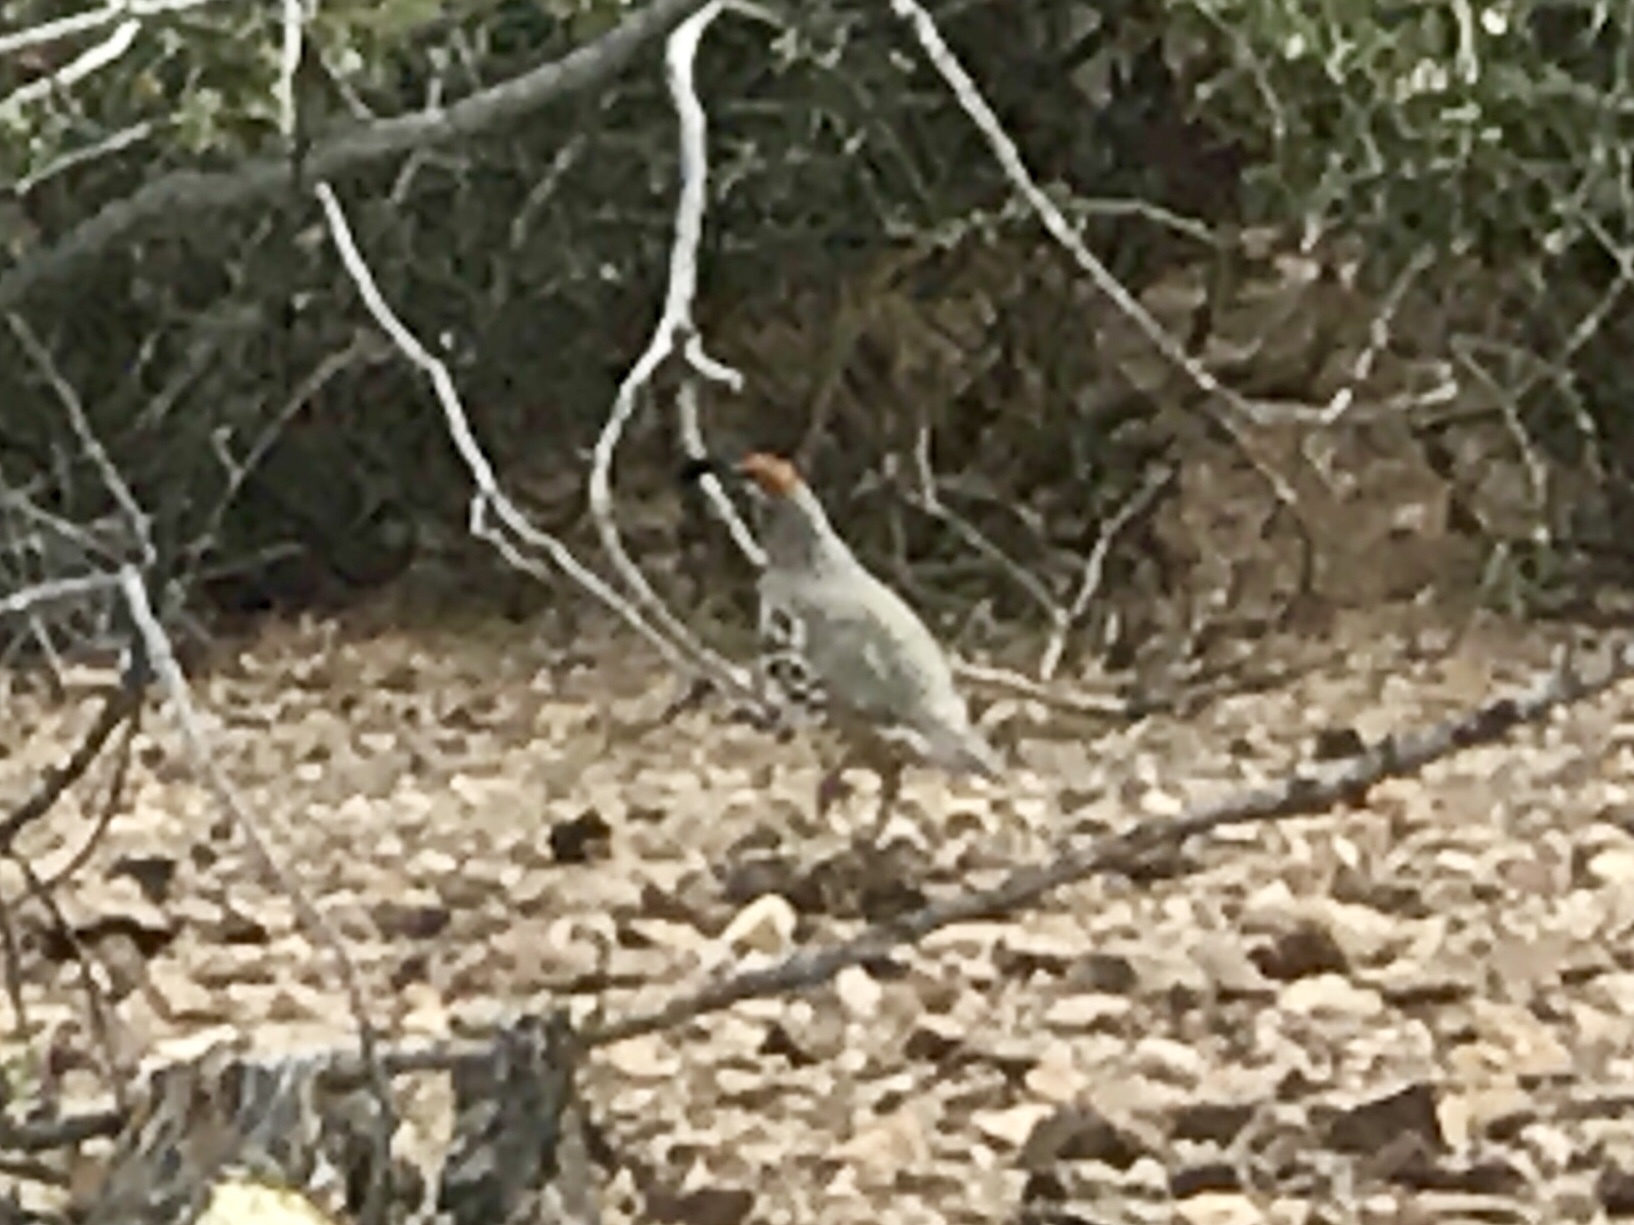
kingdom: Animalia
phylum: Chordata
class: Aves
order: Galliformes
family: Odontophoridae
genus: Callipepla
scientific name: Callipepla gambelii
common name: Gambel's quail
